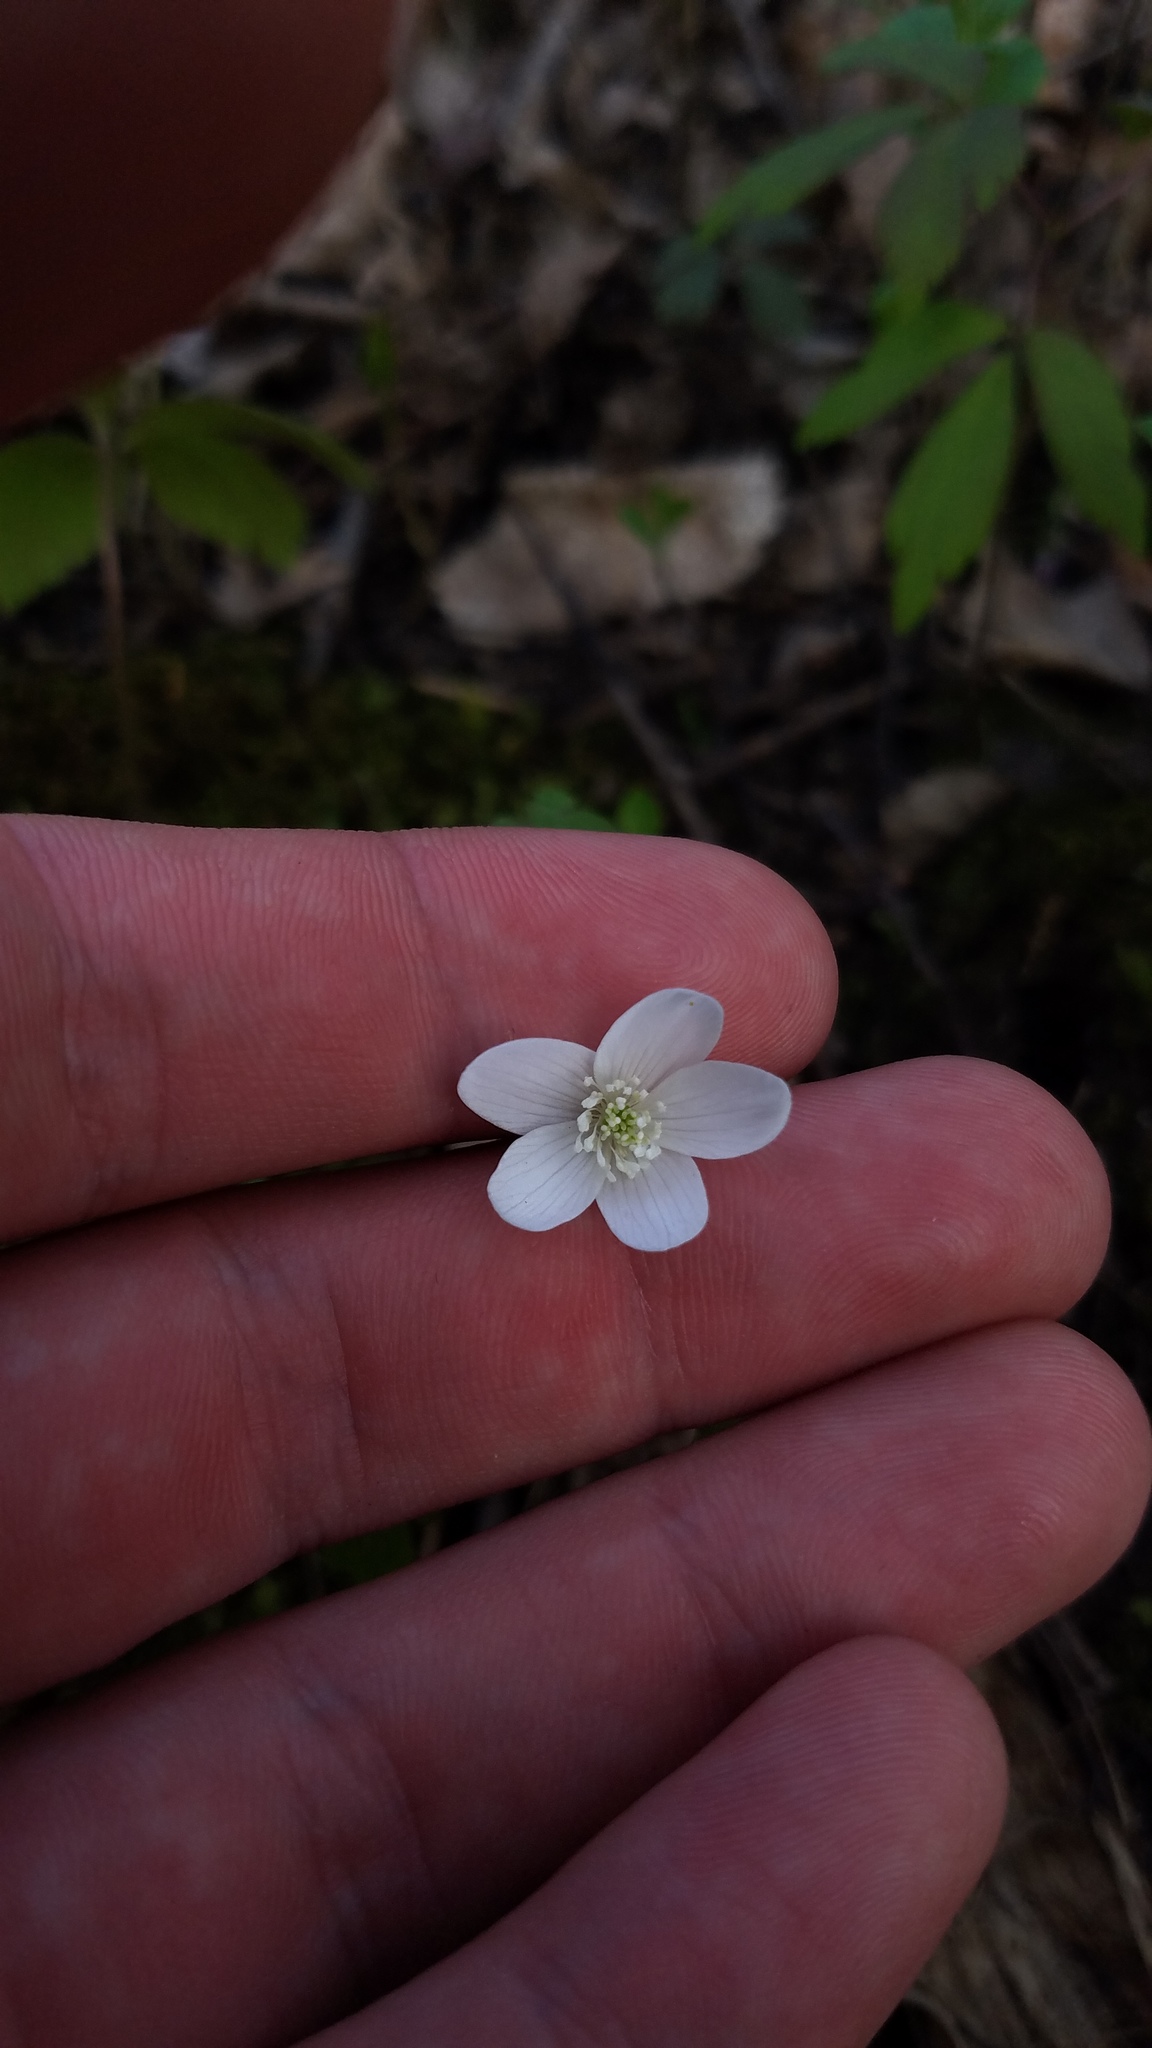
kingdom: Plantae
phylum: Tracheophyta
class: Magnoliopsida
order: Ranunculales
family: Ranunculaceae
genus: Anemone
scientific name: Anemone quinquefolia
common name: Wood anemone
